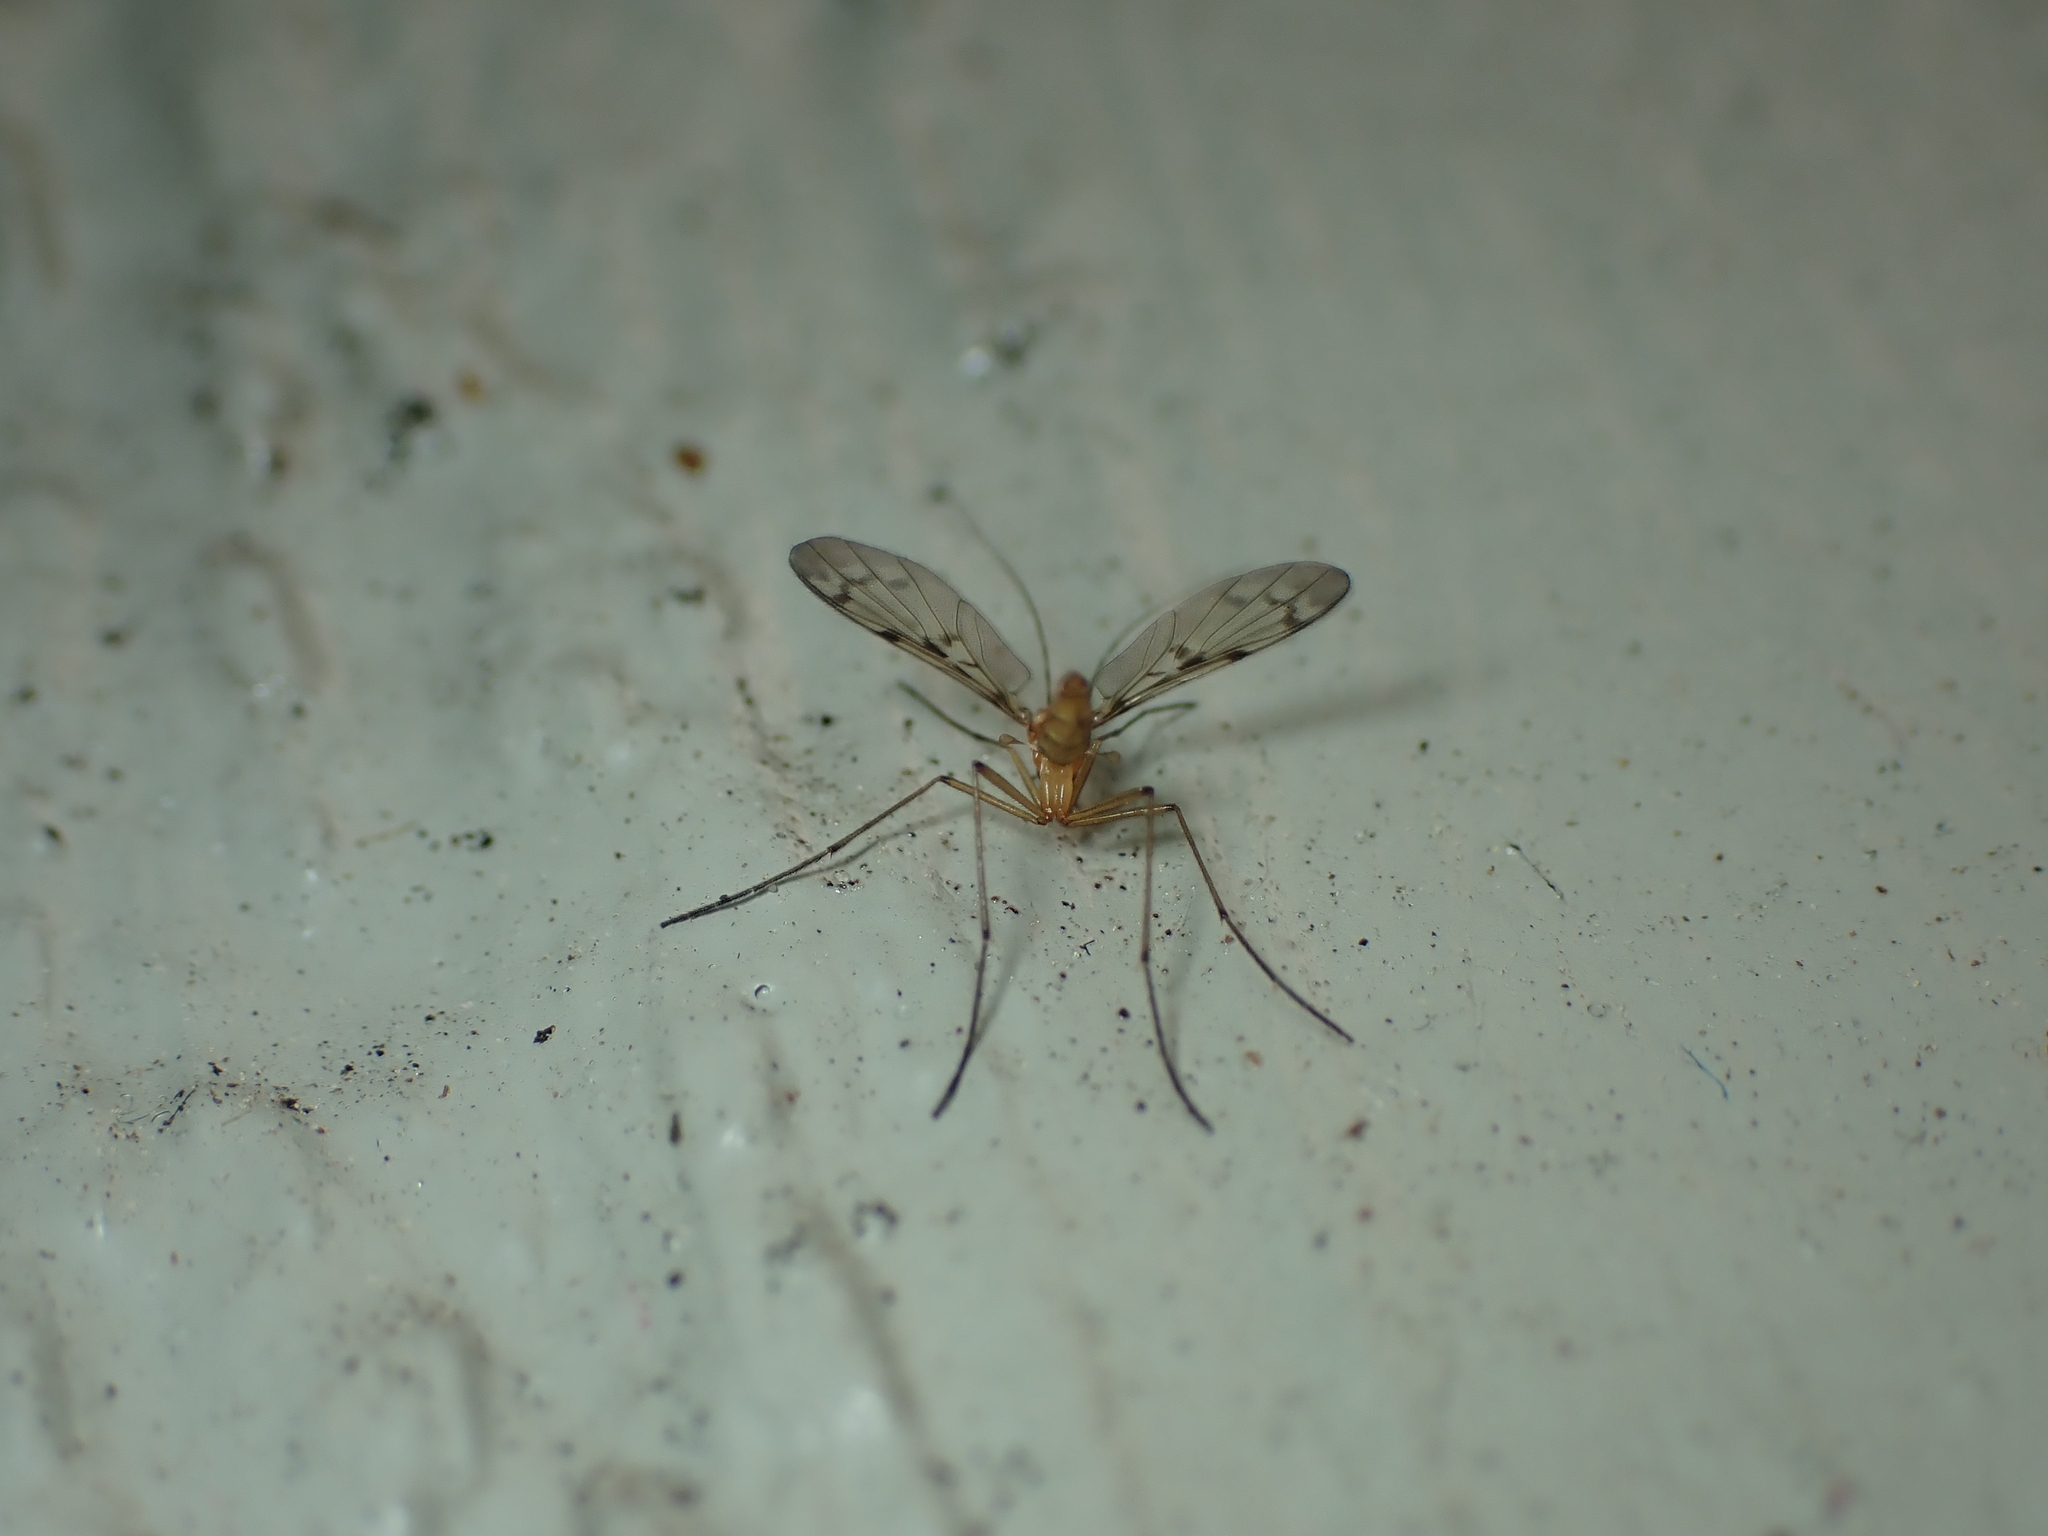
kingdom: Animalia
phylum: Arthropoda
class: Insecta
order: Diptera
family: Keroplatidae
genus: Chiasmoneura
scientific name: Chiasmoneura milligani
